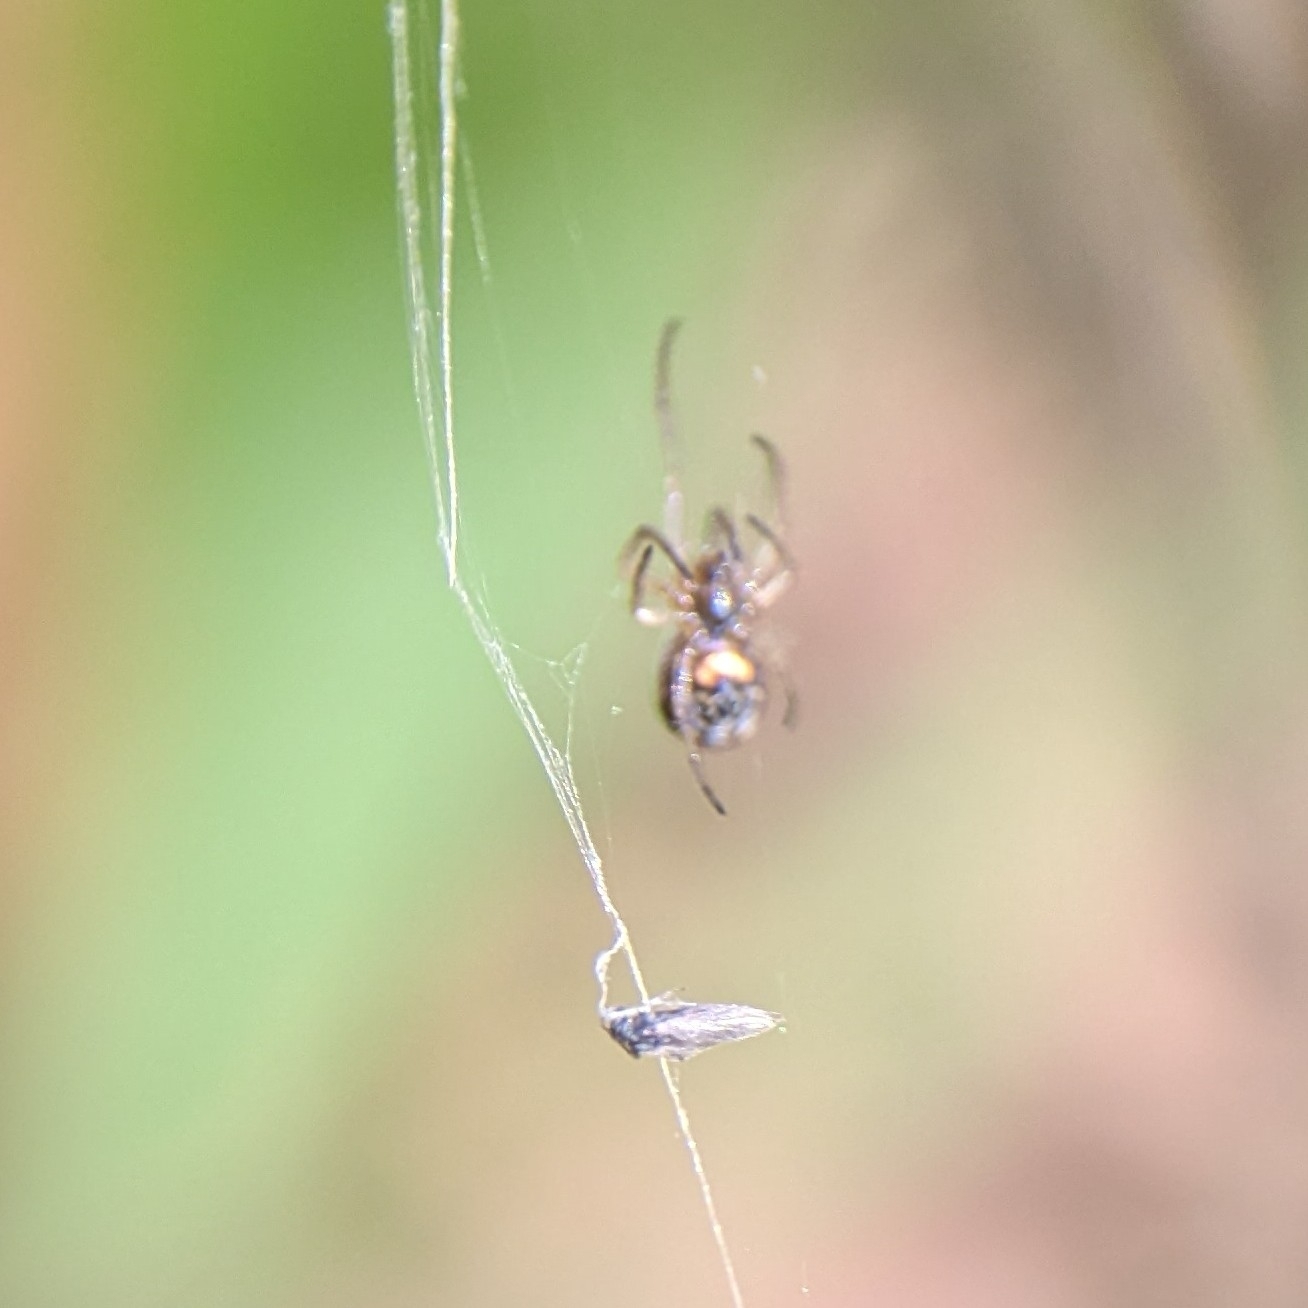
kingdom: Animalia
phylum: Arthropoda
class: Arachnida
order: Araneae
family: Tetragnathidae
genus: Leucauge
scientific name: Leucauge venusta
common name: Longjawed orb weavers
